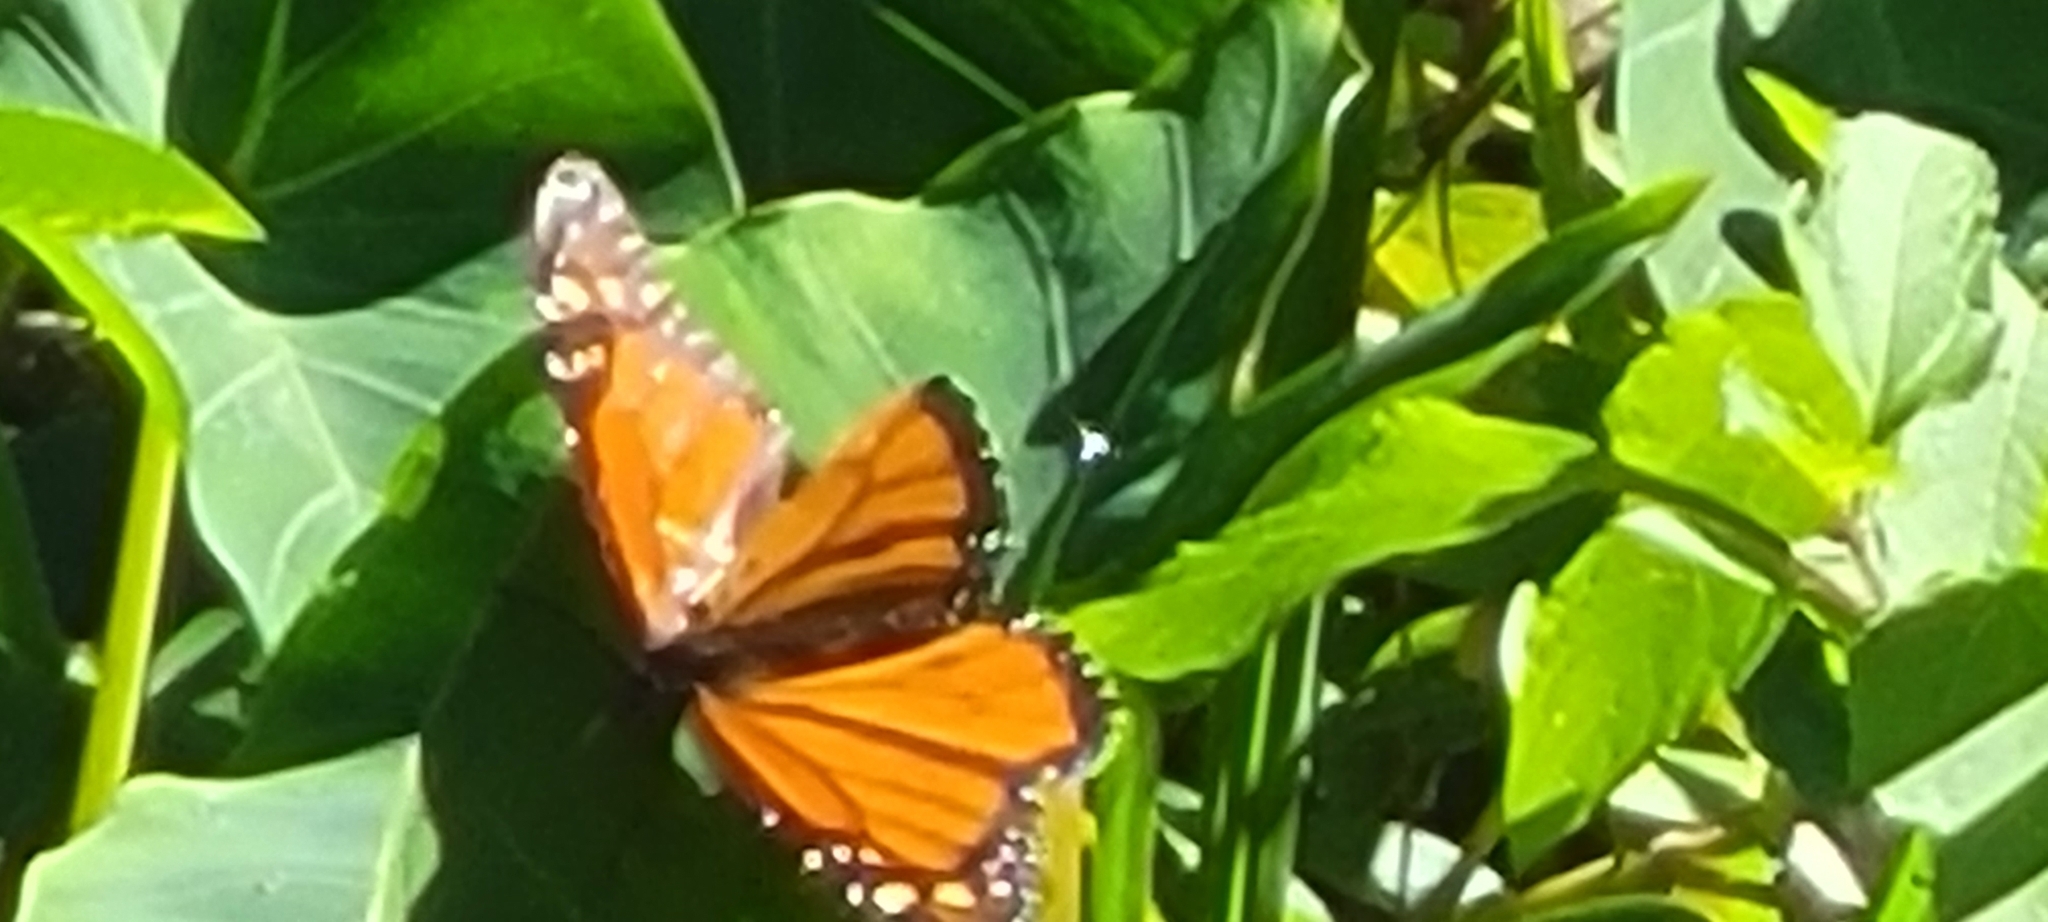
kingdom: Animalia
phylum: Arthropoda
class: Insecta
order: Lepidoptera
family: Nymphalidae
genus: Danaus
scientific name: Danaus plexippus
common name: Monarch
